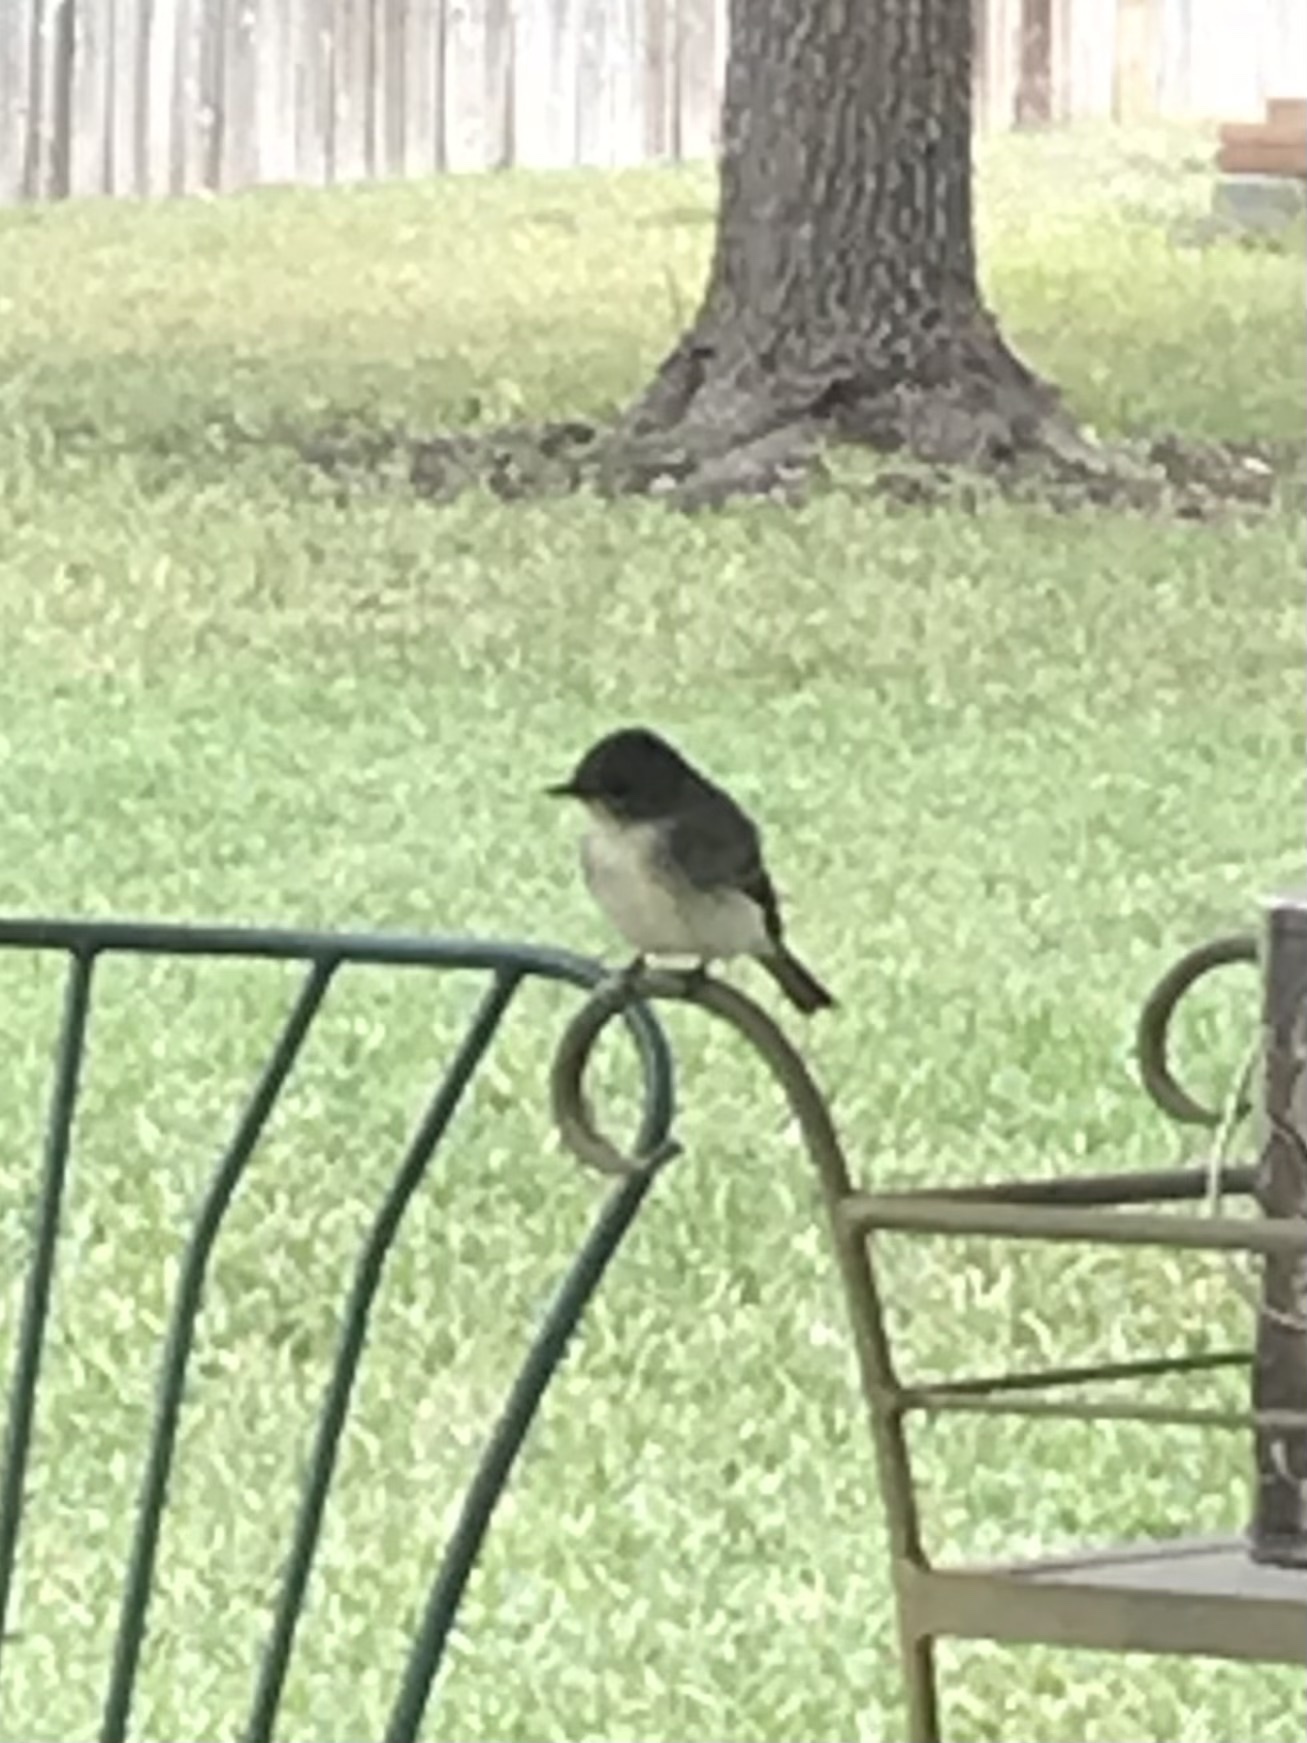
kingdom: Animalia
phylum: Chordata
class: Aves
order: Passeriformes
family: Tyrannidae
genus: Sayornis
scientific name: Sayornis phoebe
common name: Eastern phoebe
